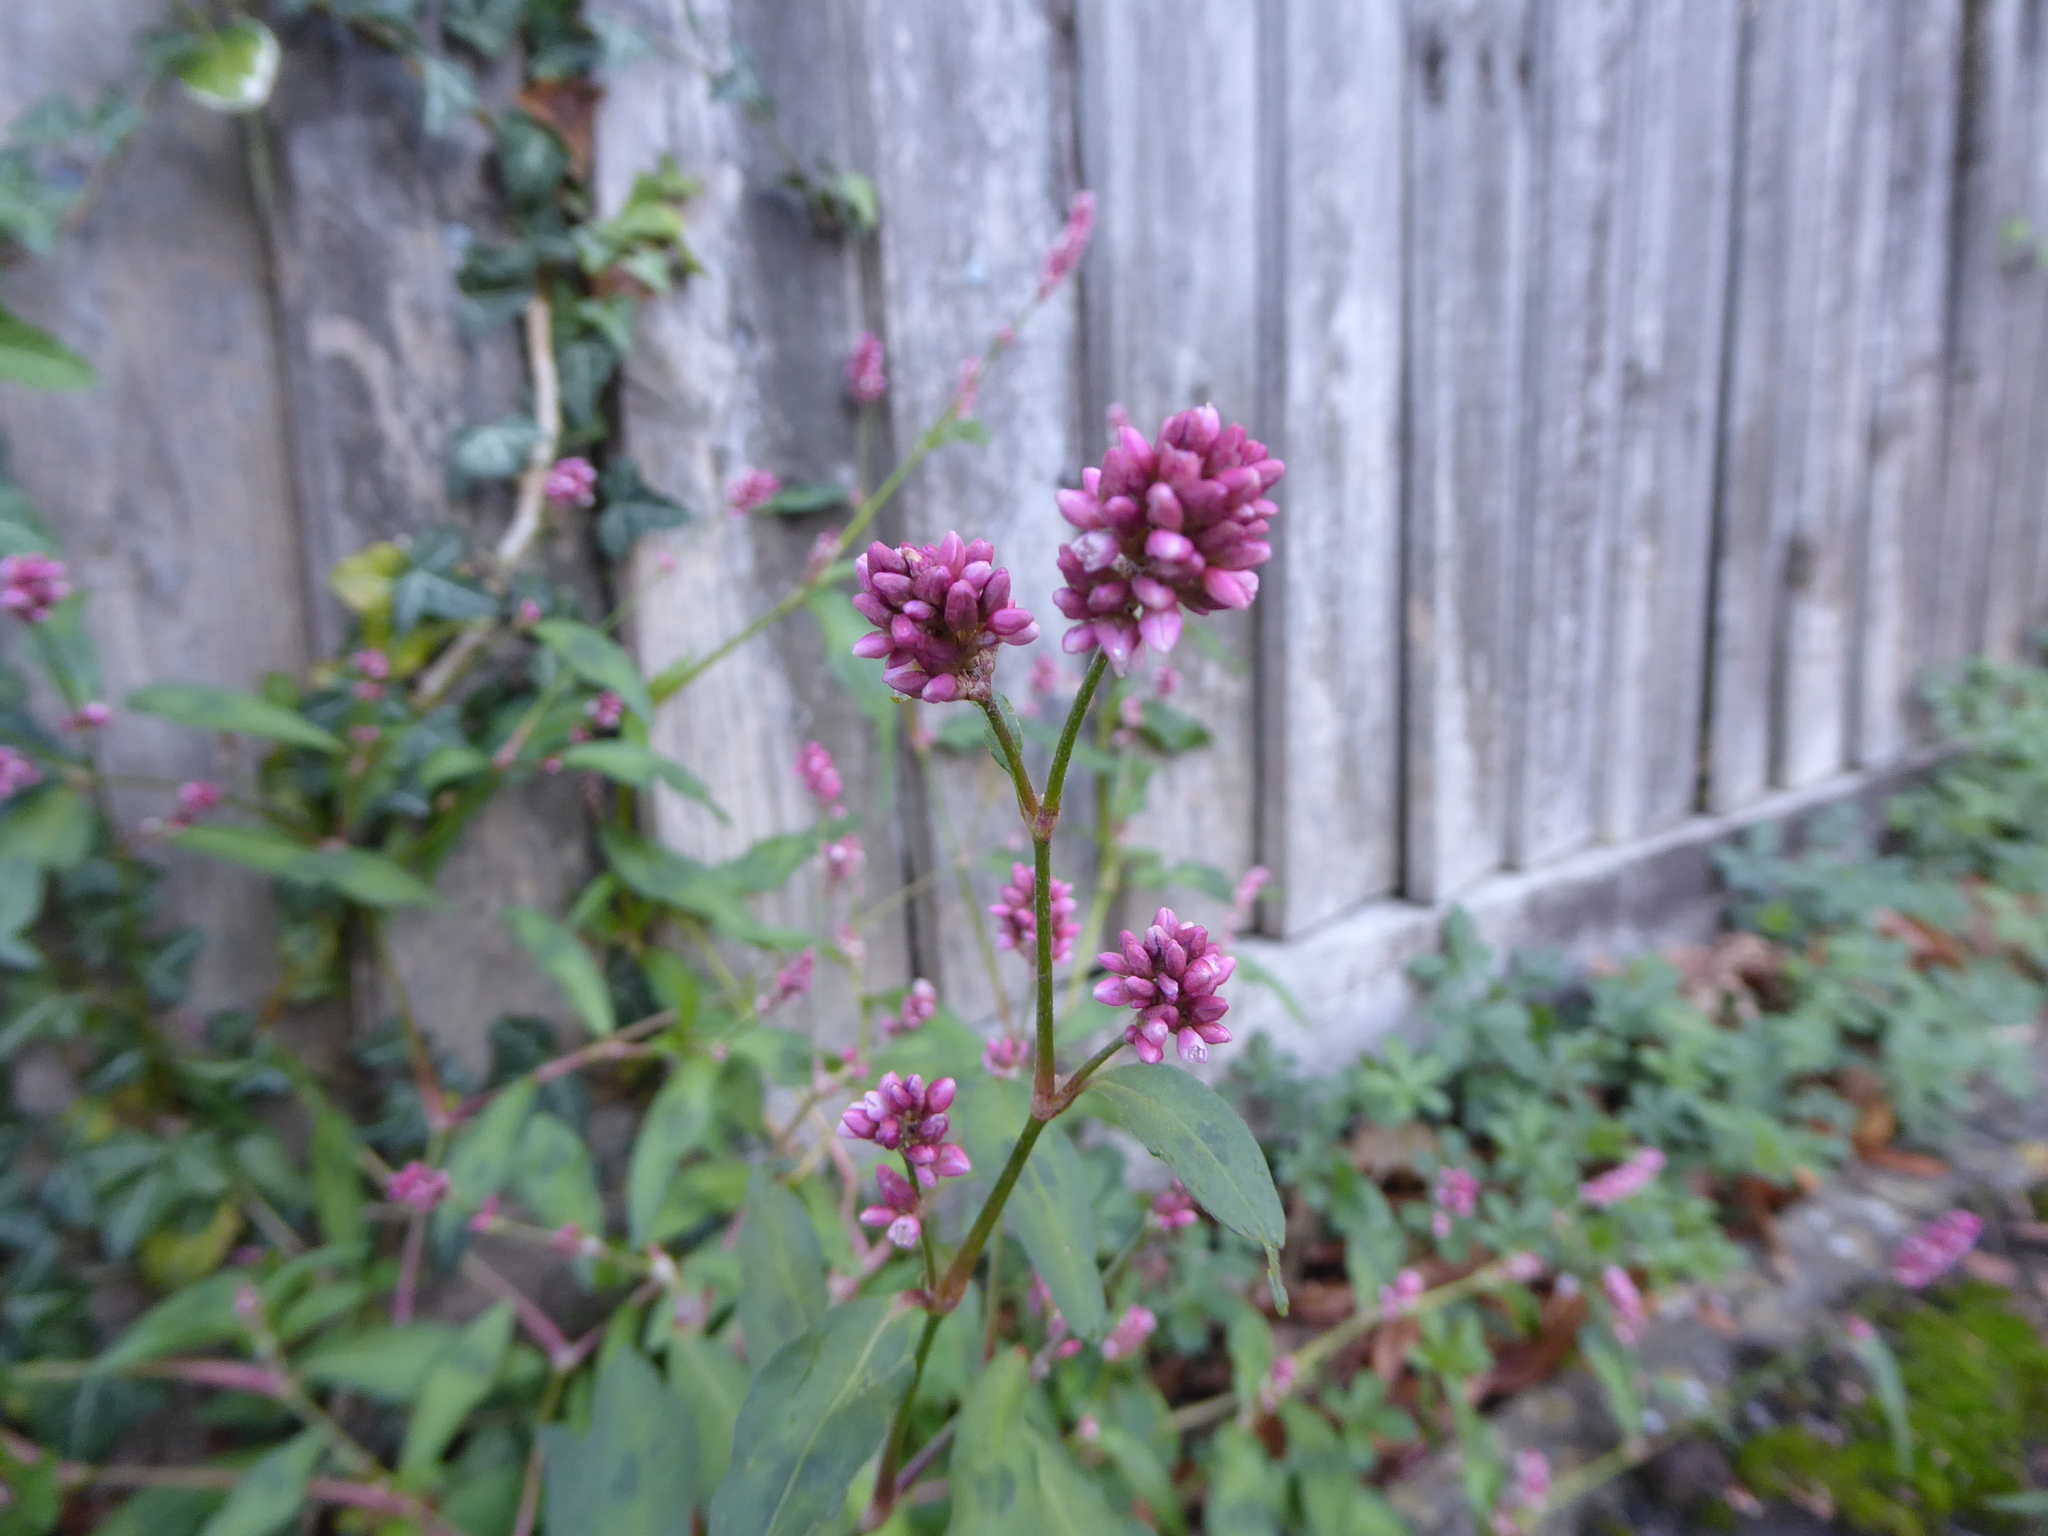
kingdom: Plantae
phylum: Tracheophyta
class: Magnoliopsida
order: Caryophyllales
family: Polygonaceae
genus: Persicaria
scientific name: Persicaria maculosa
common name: Redshank
